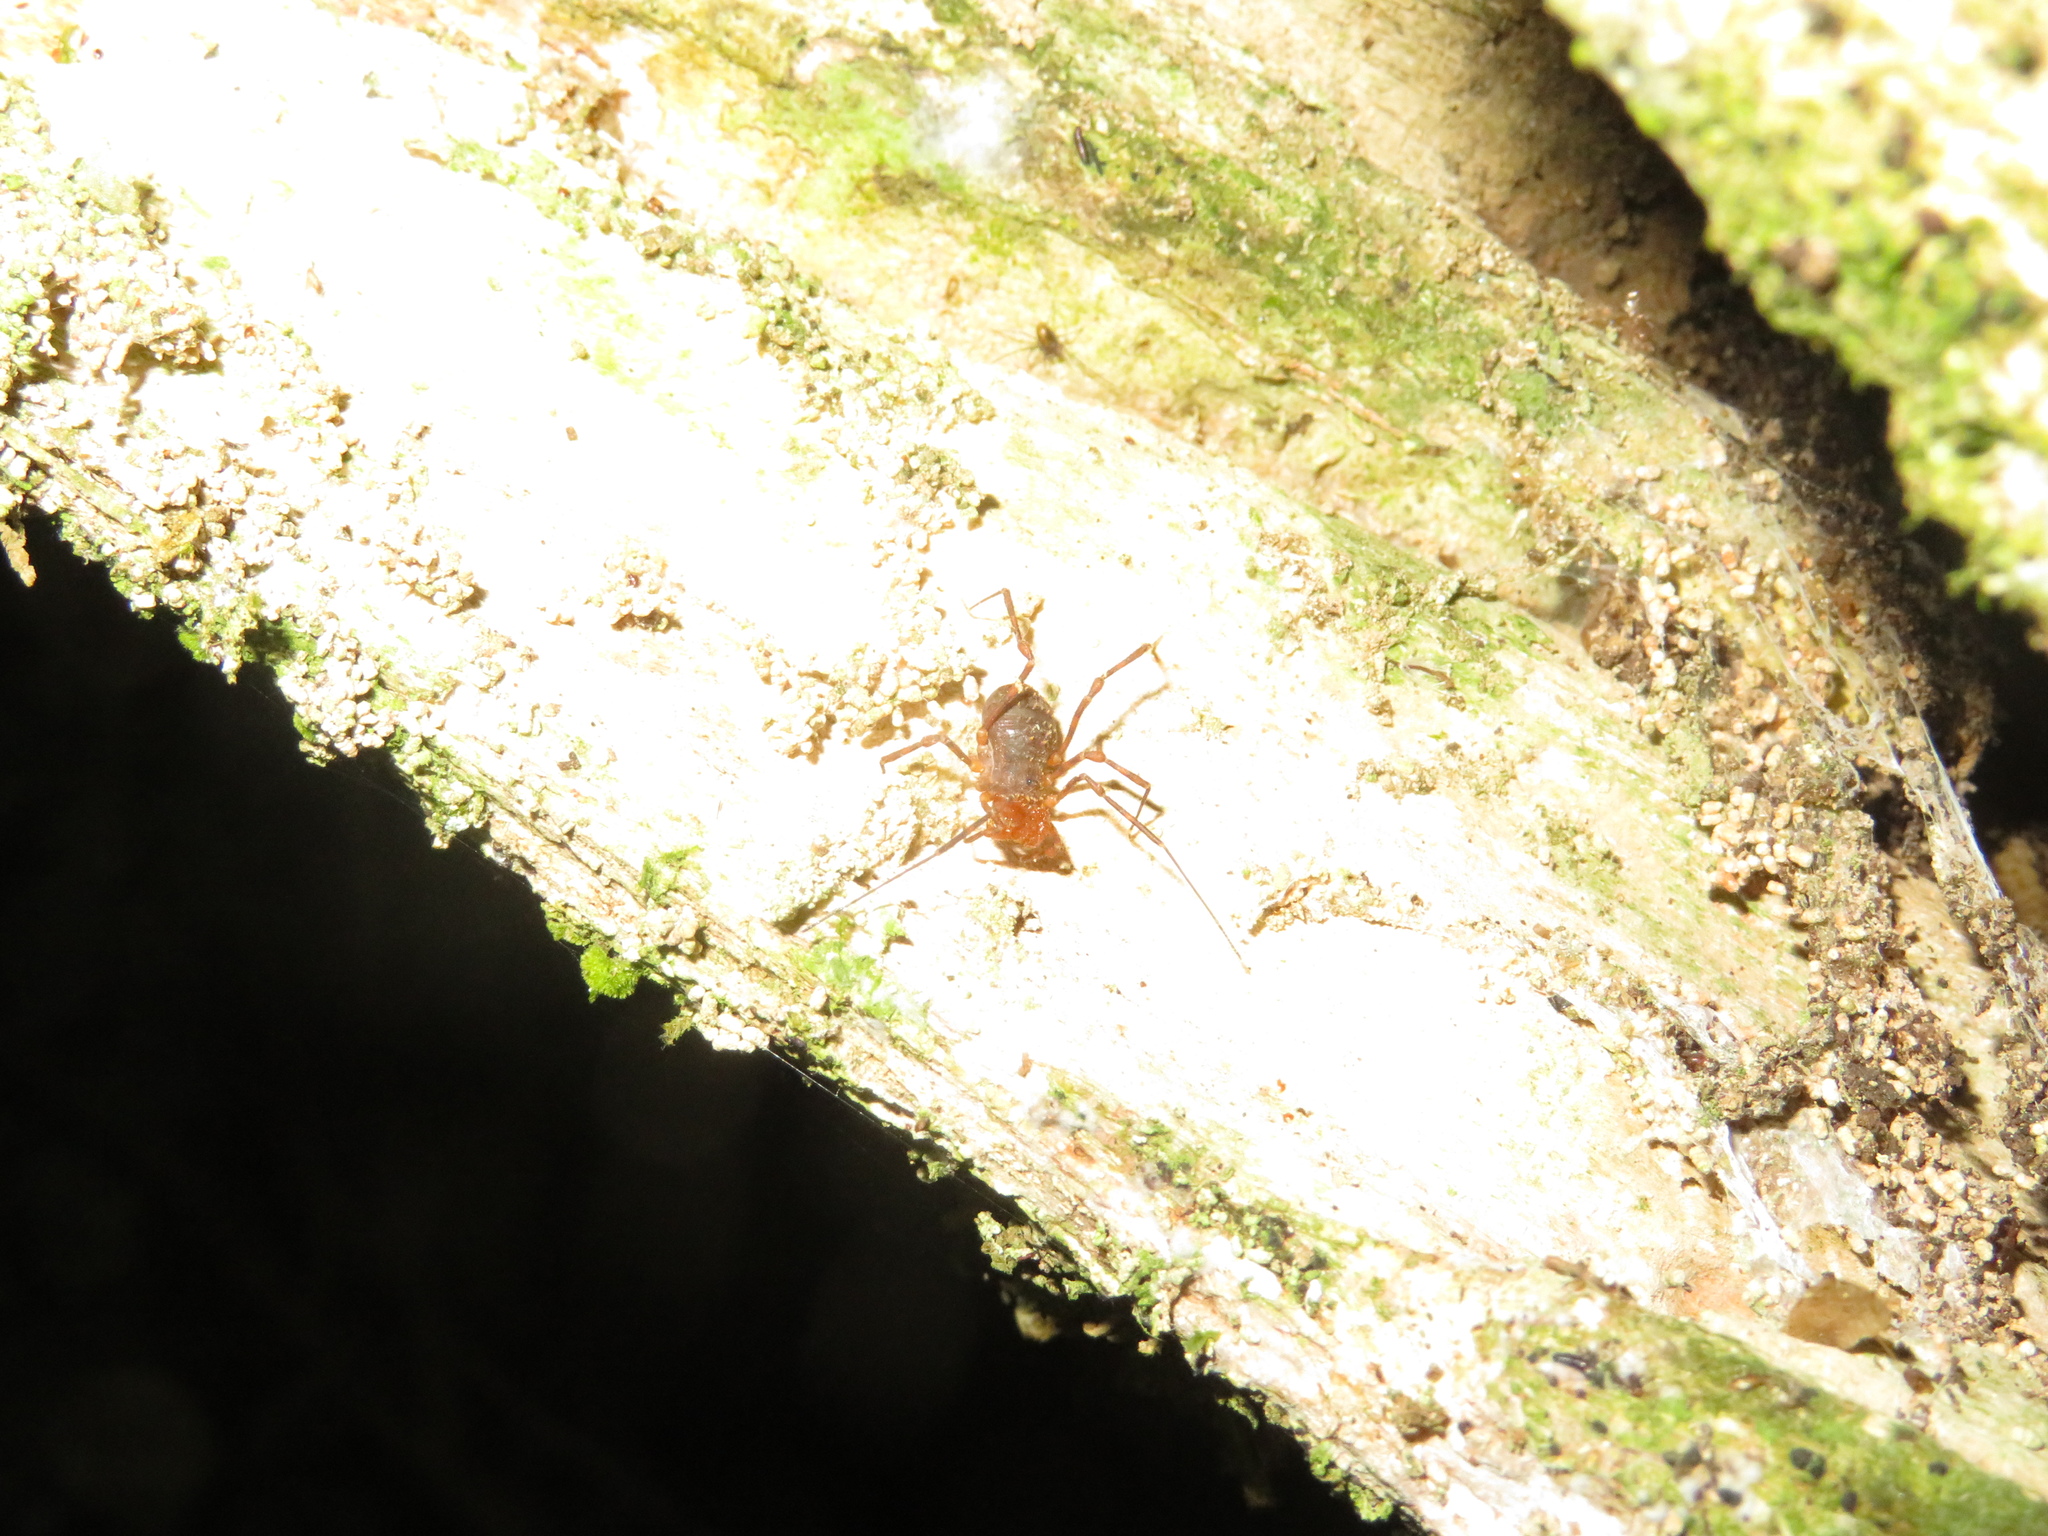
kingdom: Animalia
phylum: Arthropoda
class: Arachnida
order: Opiliones
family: Triaenonychidae
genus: Prasma
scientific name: Prasma tuberculata
